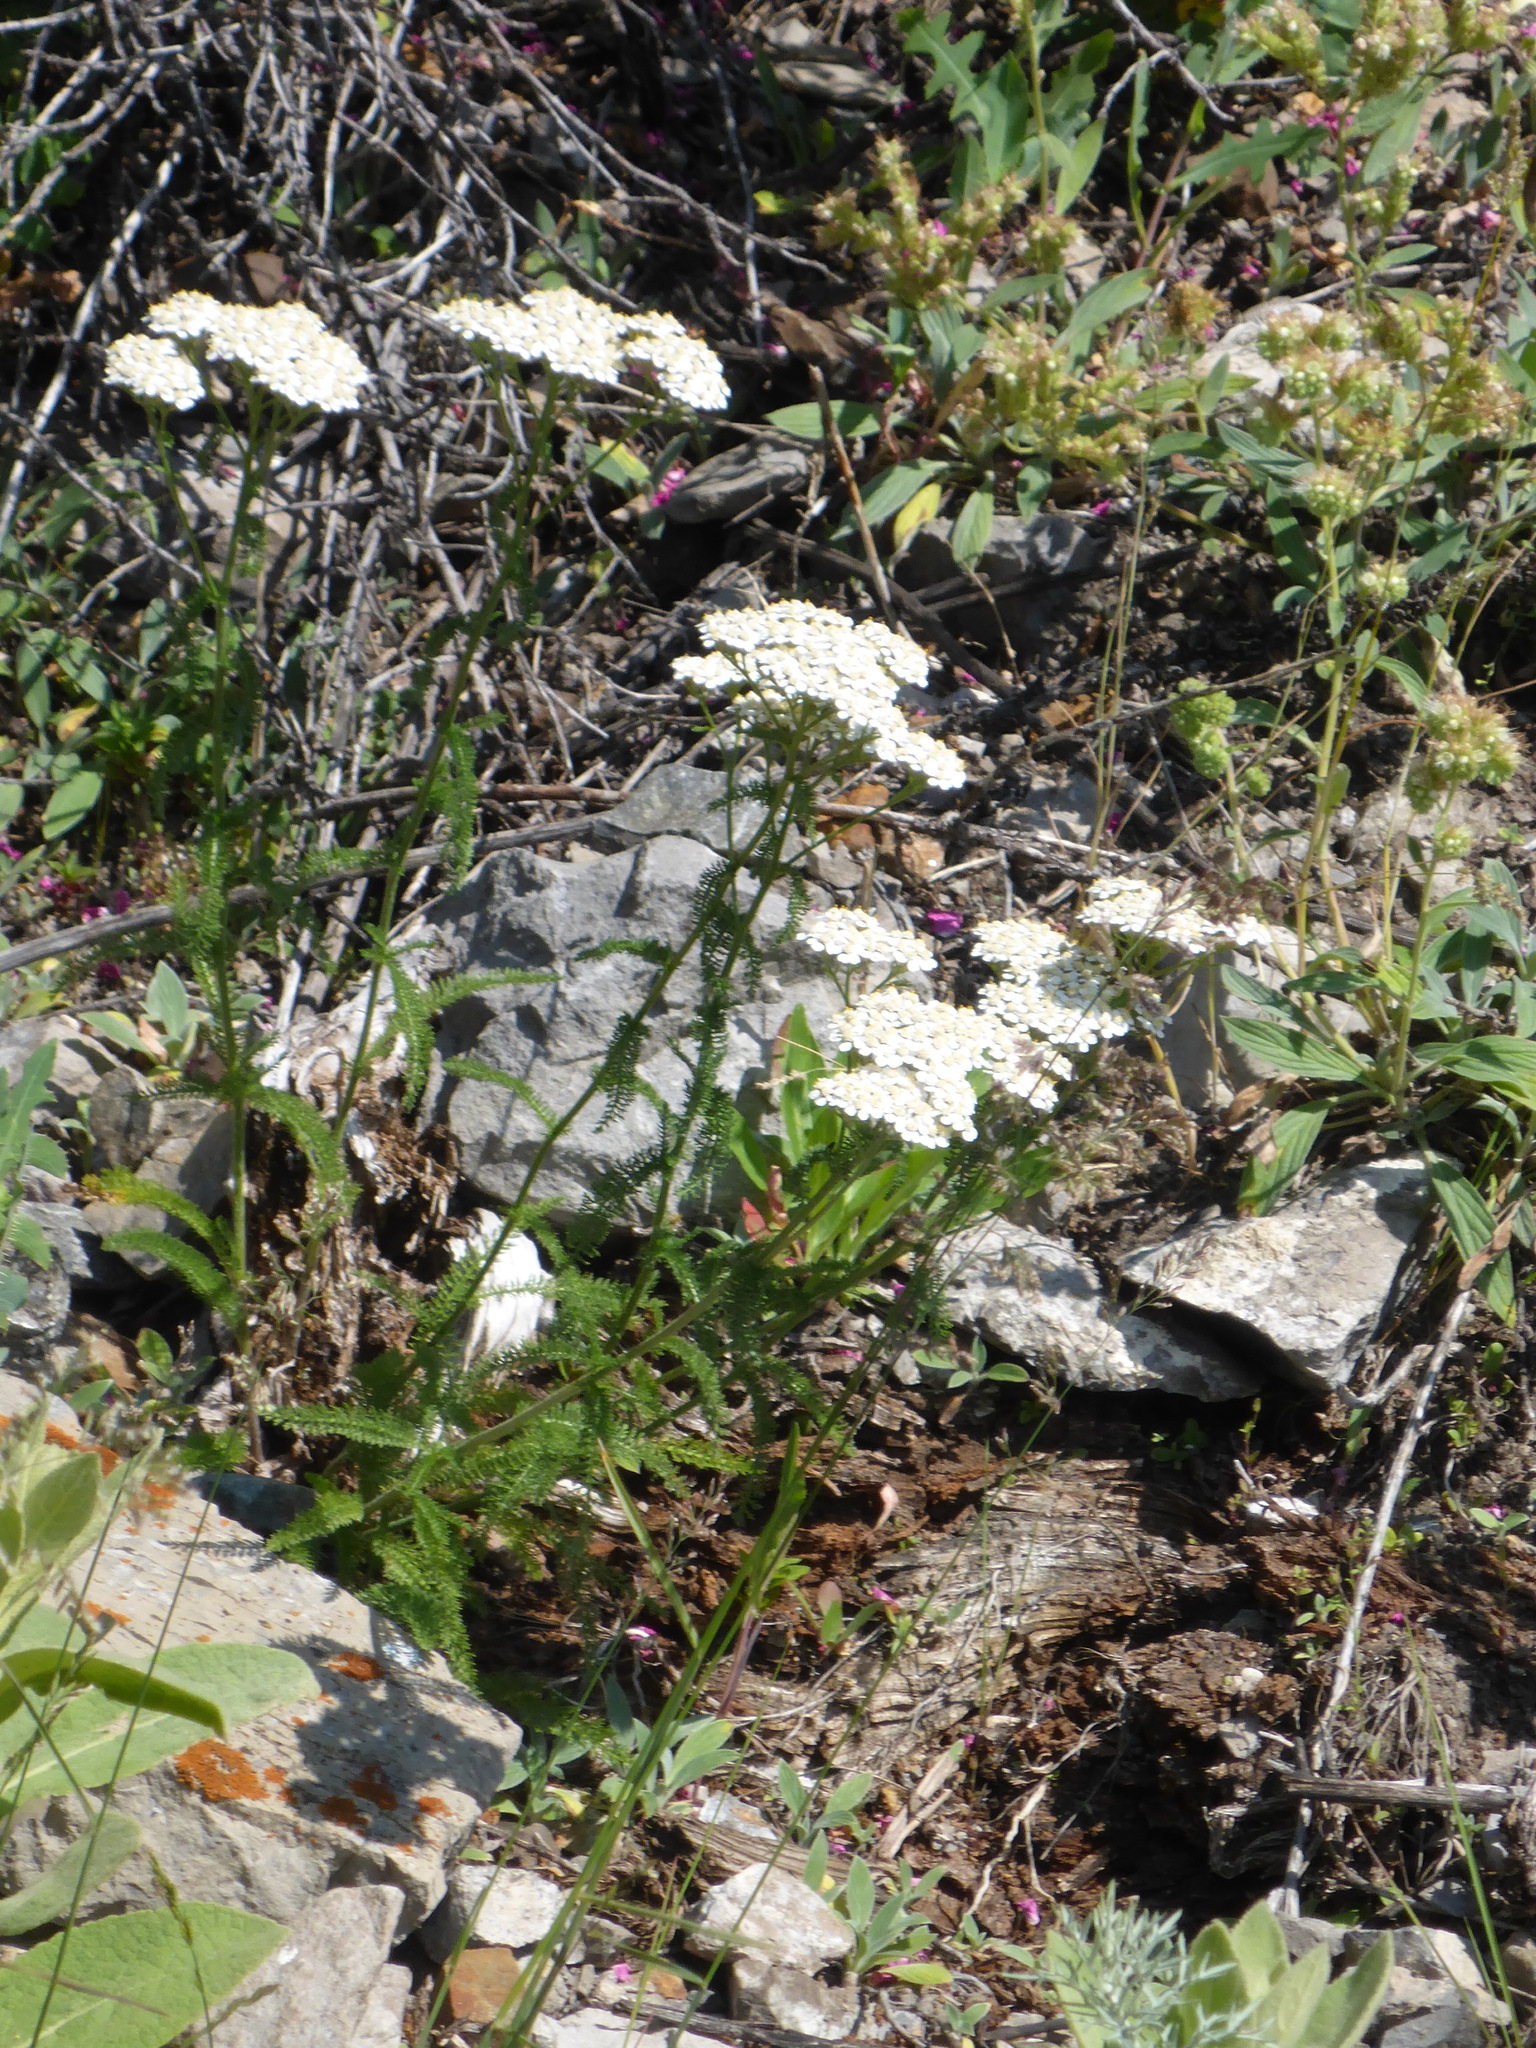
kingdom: Plantae
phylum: Tracheophyta
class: Magnoliopsida
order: Asterales
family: Asteraceae
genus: Achillea
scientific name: Achillea millefolium
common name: Yarrow
